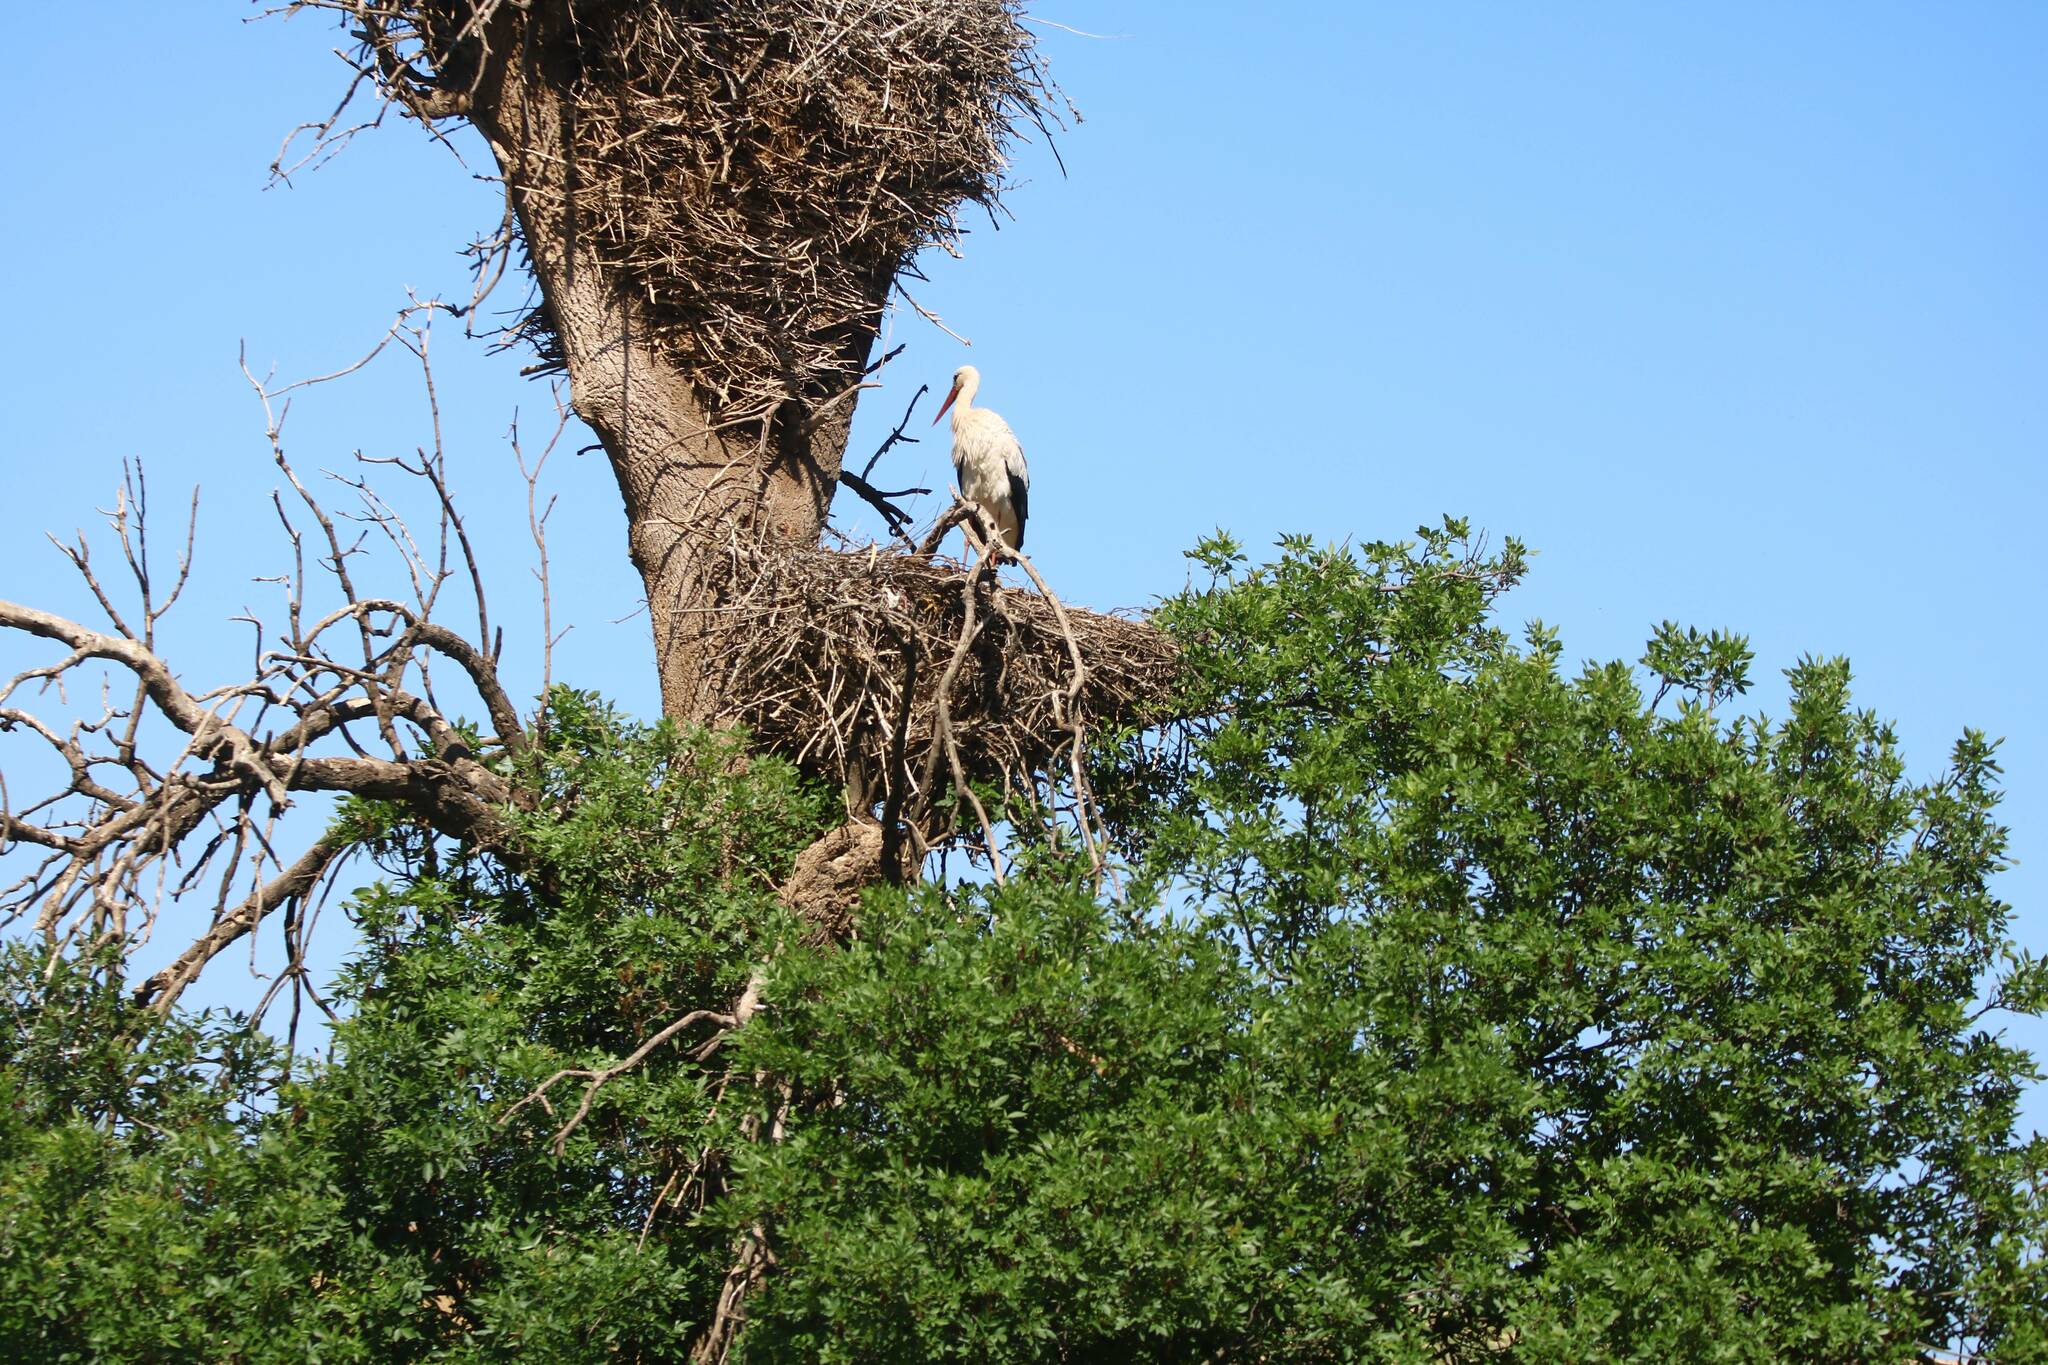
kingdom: Animalia
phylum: Chordata
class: Aves
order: Ciconiiformes
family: Ciconiidae
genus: Ciconia
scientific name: Ciconia ciconia
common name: White stork
